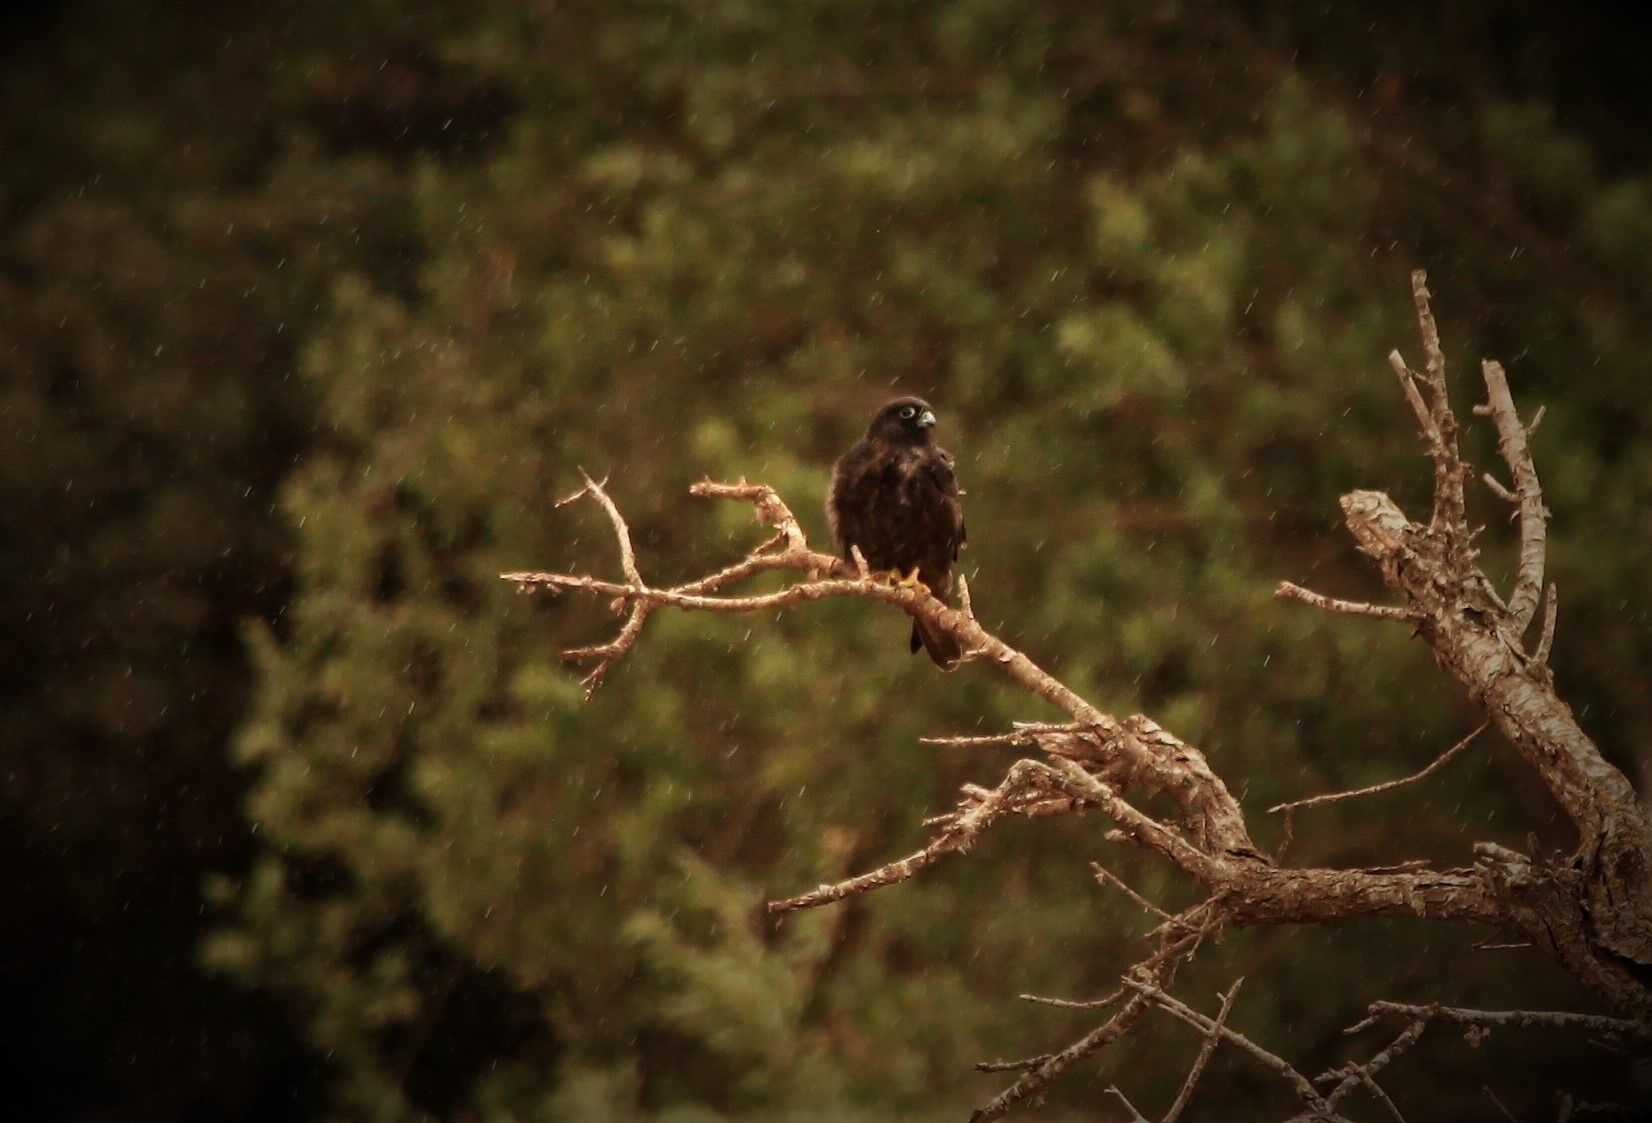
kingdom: Animalia
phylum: Chordata
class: Aves
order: Falconiformes
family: Falconidae
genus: Falco
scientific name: Falco eleonorae
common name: Eleonora's falcon
